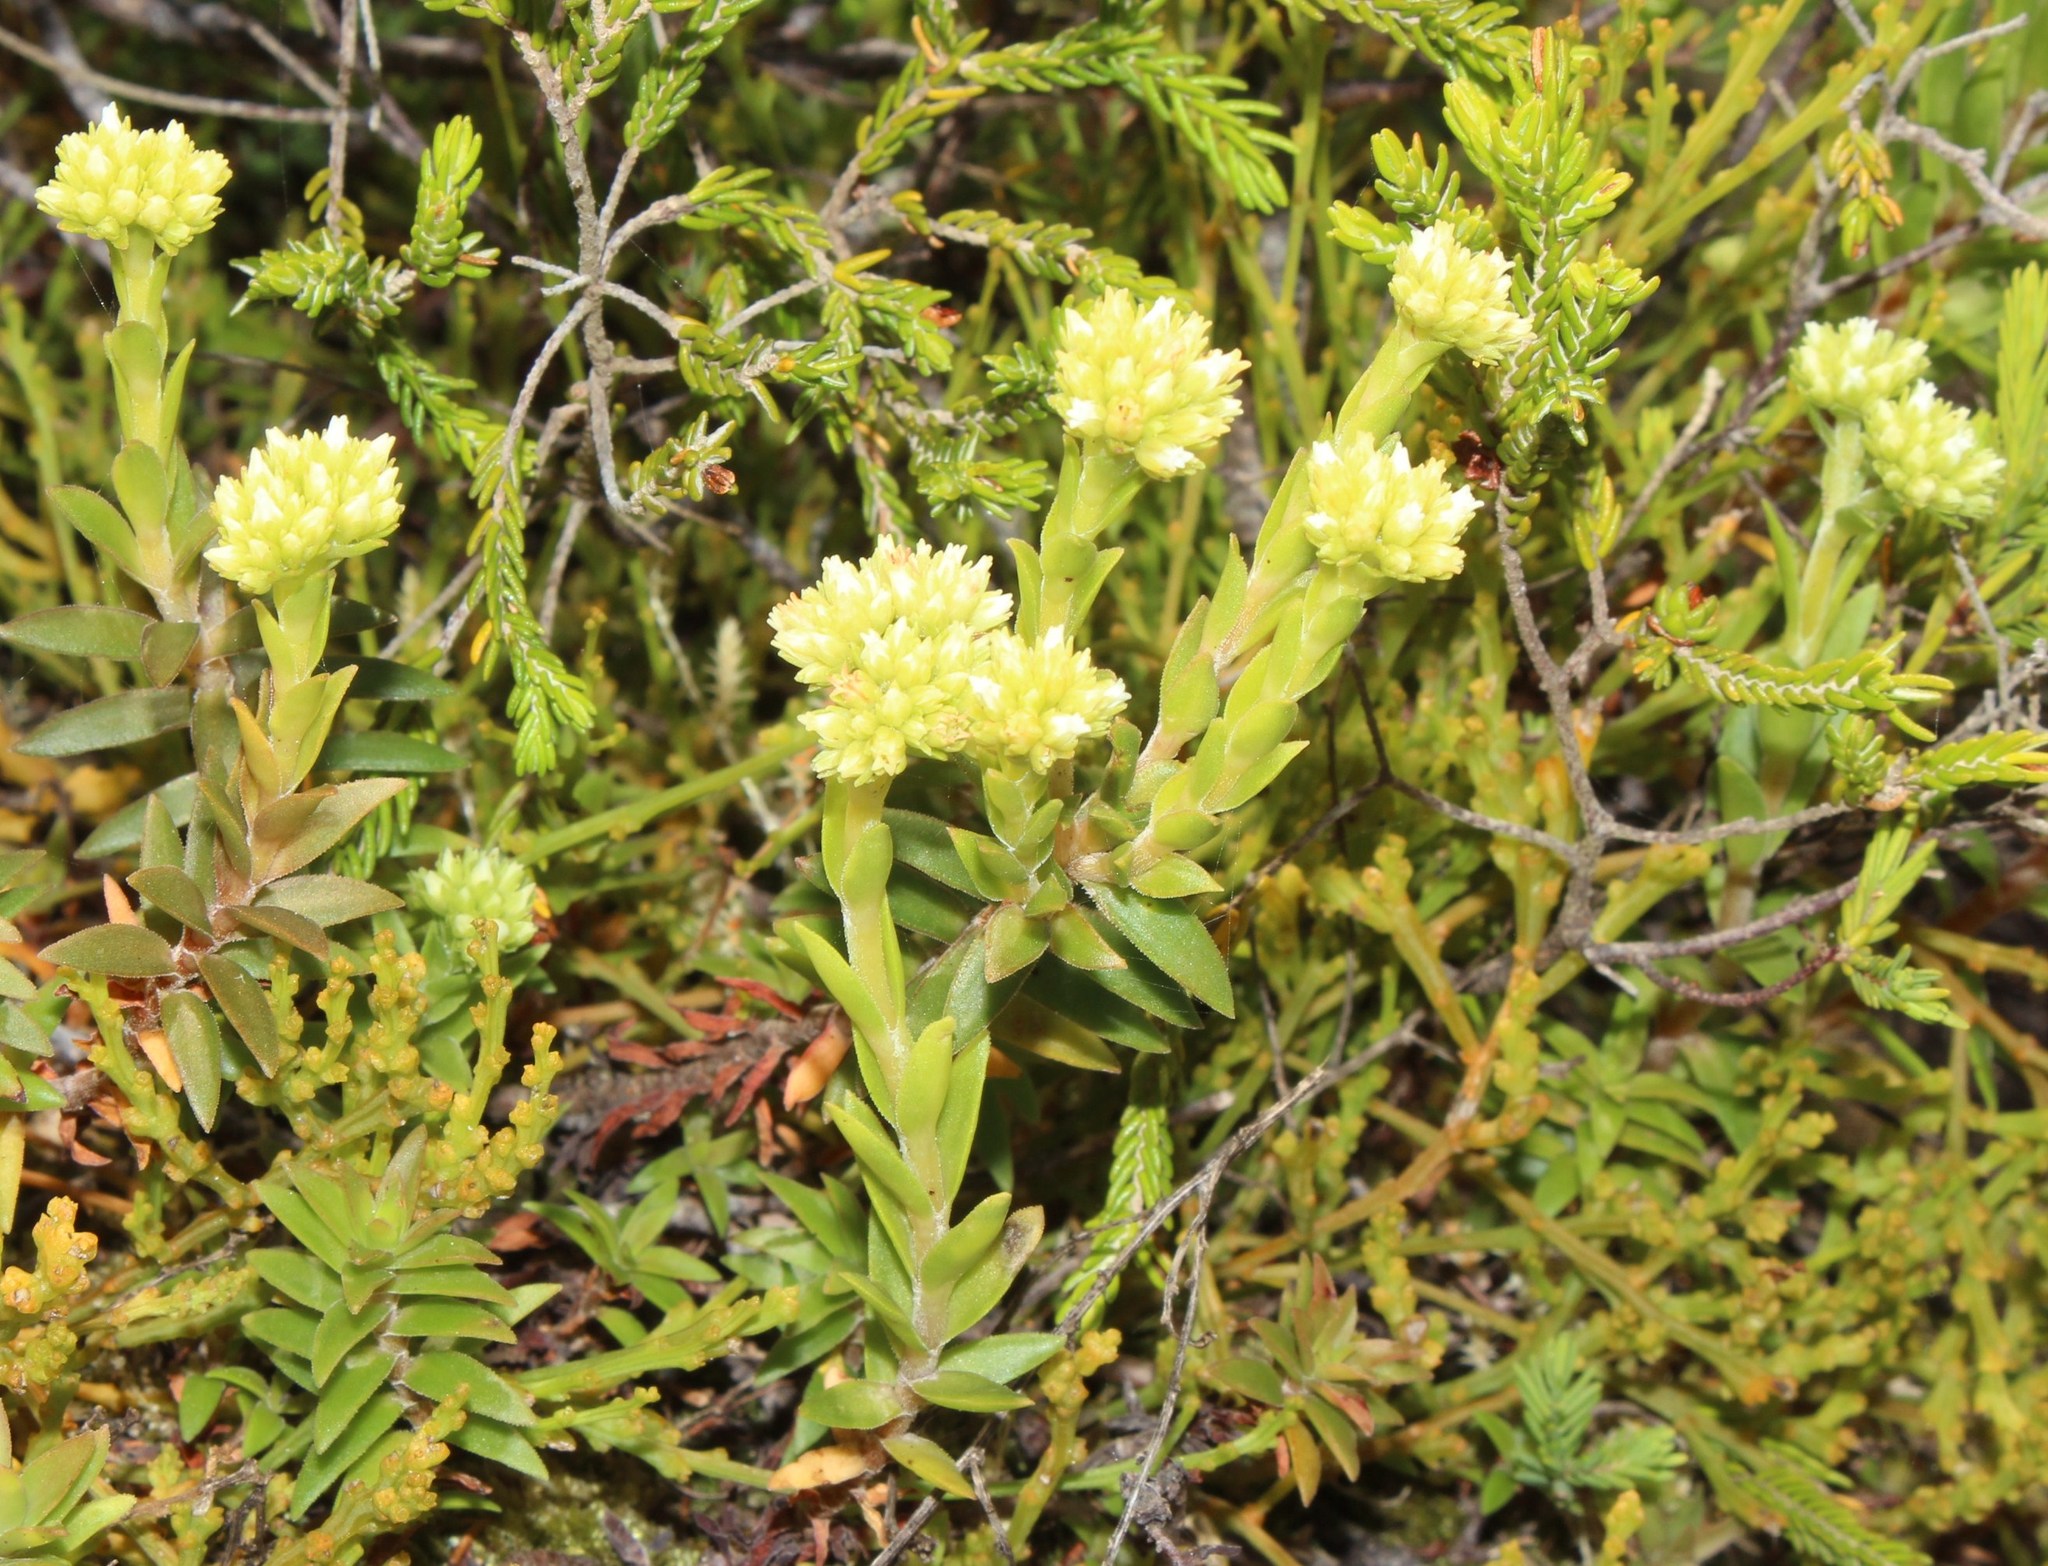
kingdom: Plantae
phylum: Tracheophyta
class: Magnoliopsida
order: Saxifragales
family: Crassulaceae
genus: Crassula
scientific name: Crassula subulata
